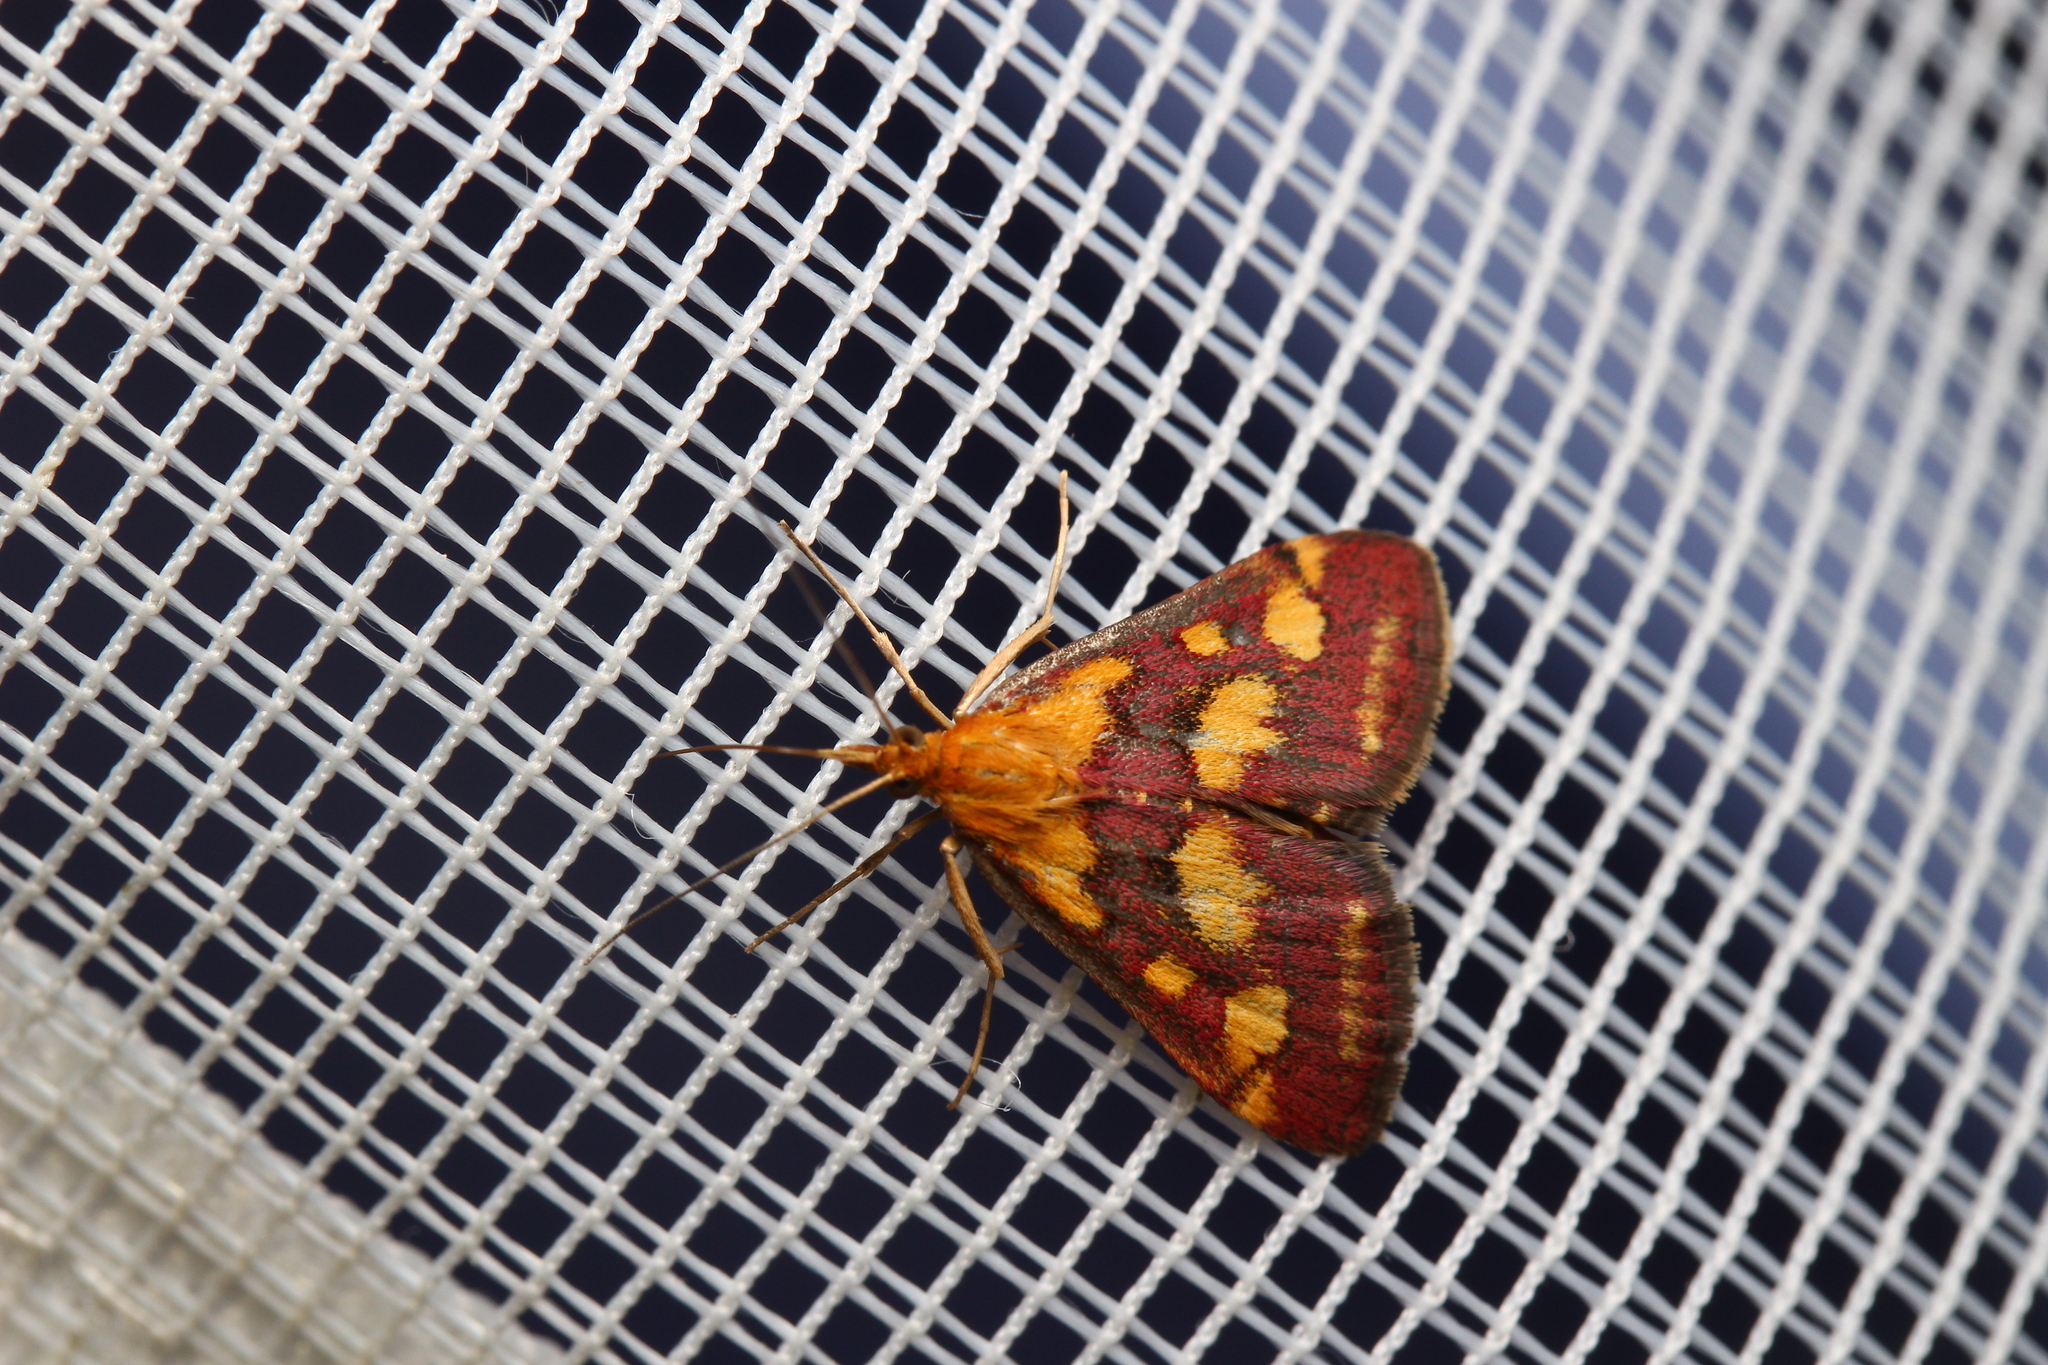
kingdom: Animalia
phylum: Arthropoda
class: Insecta
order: Lepidoptera
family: Crambidae
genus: Pyrausta
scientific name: Pyrausta purpuralis
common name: Common purple & gold
